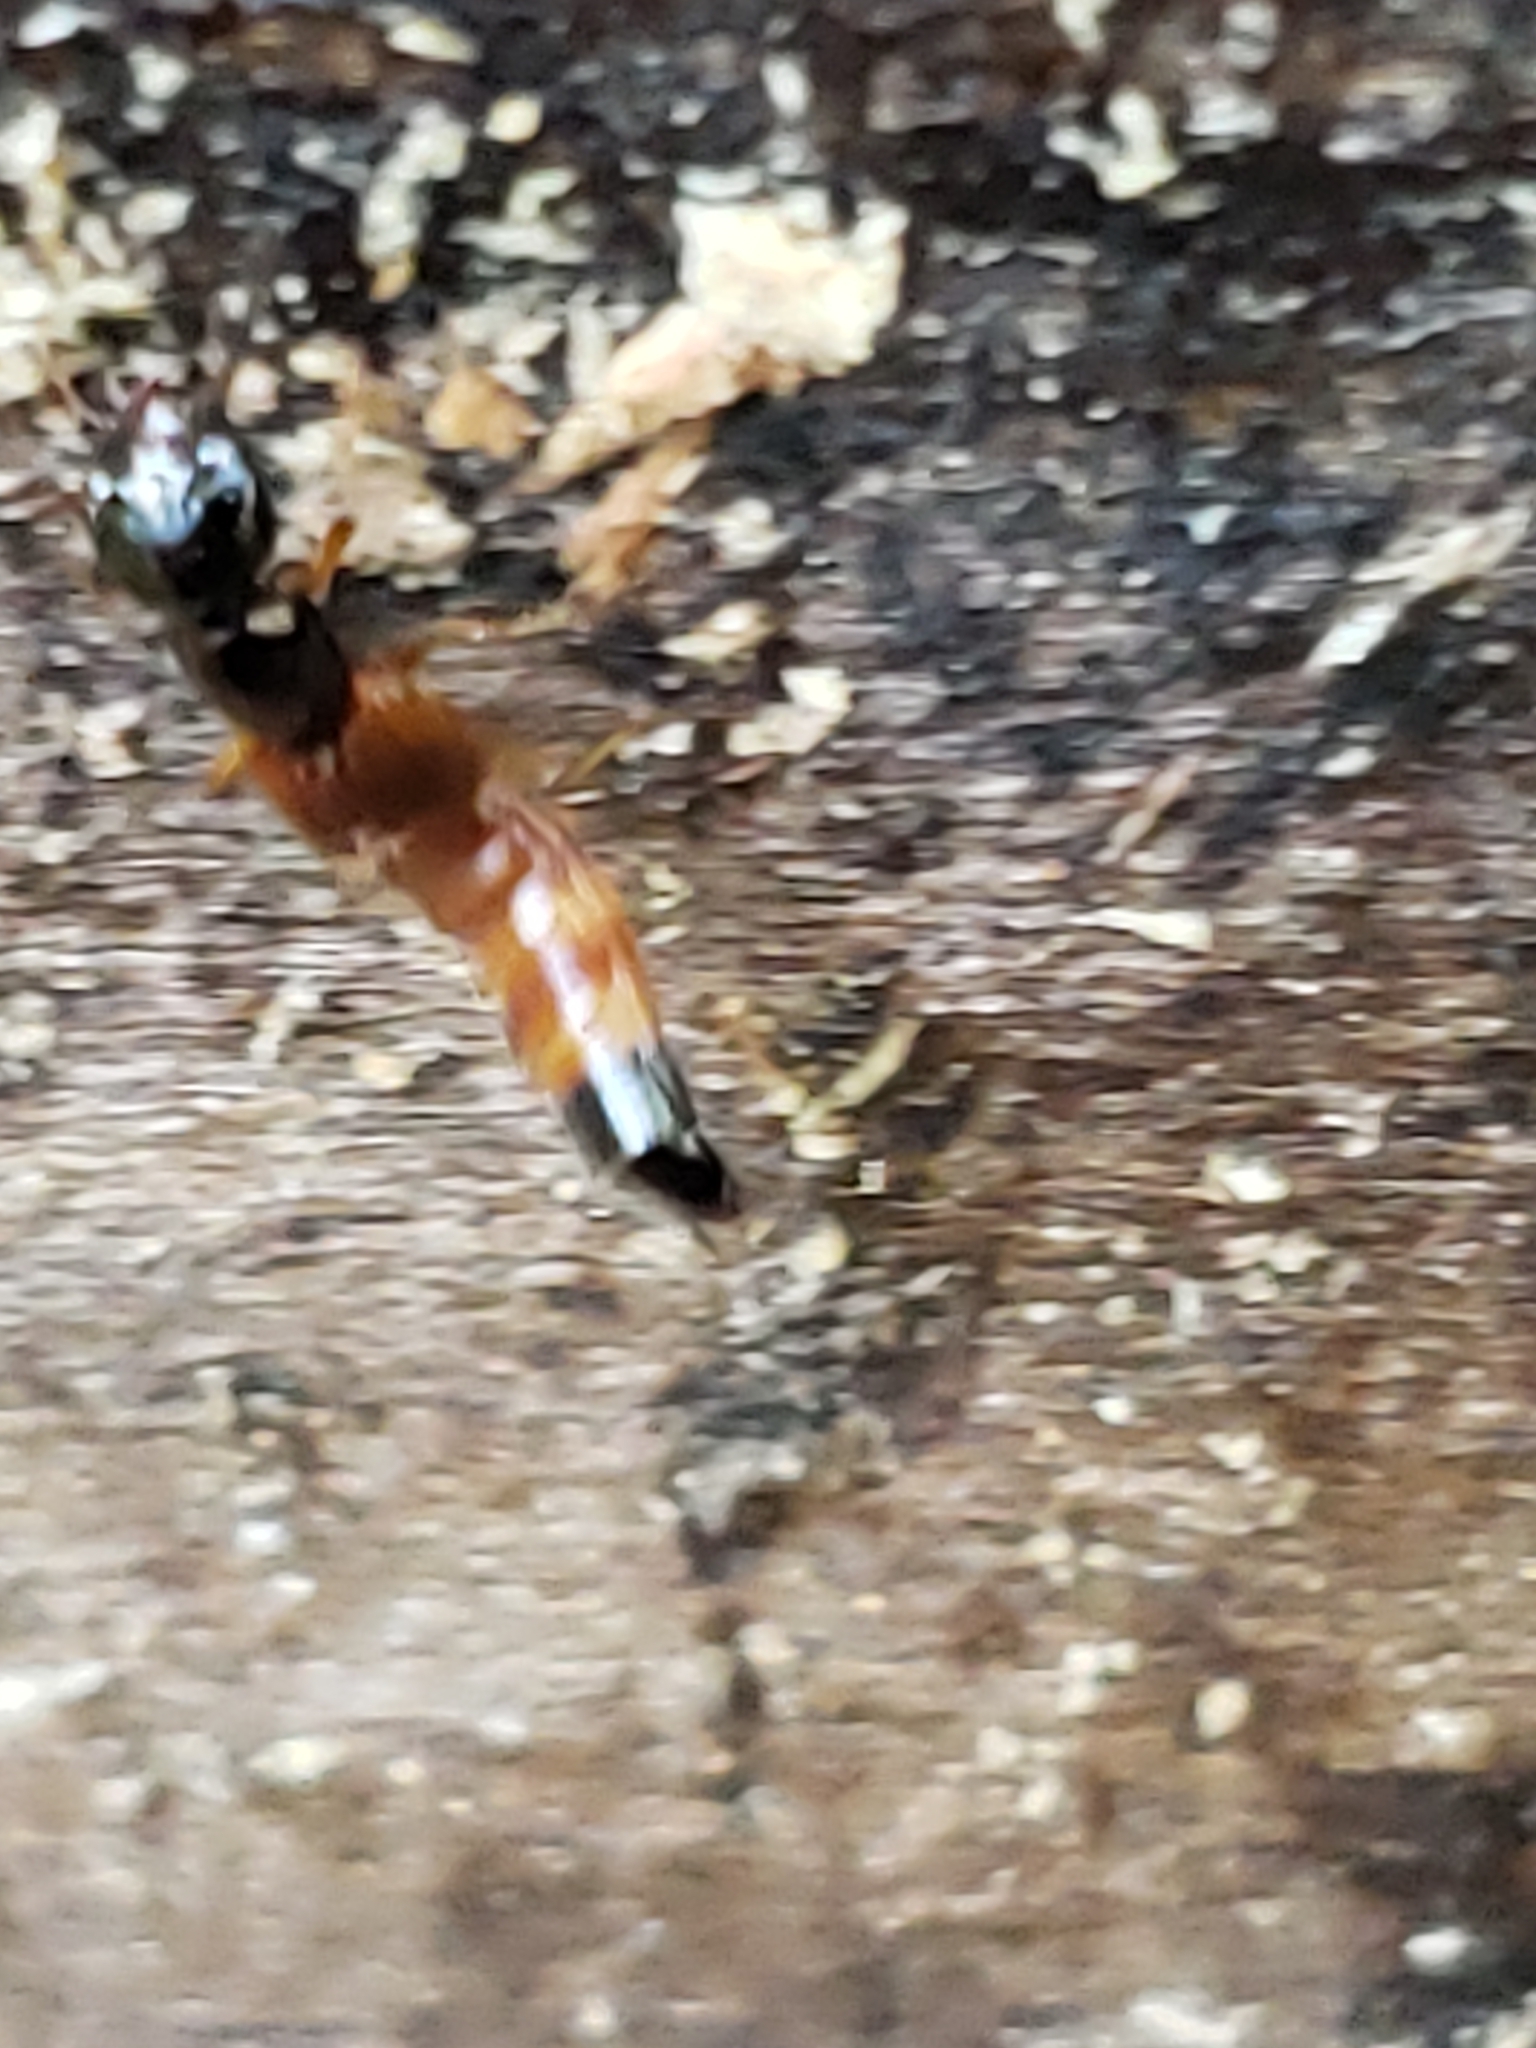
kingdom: Animalia
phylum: Arthropoda
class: Insecta
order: Coleoptera
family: Staphylinidae
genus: Belonuchus
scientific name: Belonuchus rufipennis
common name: Large rove beetle
